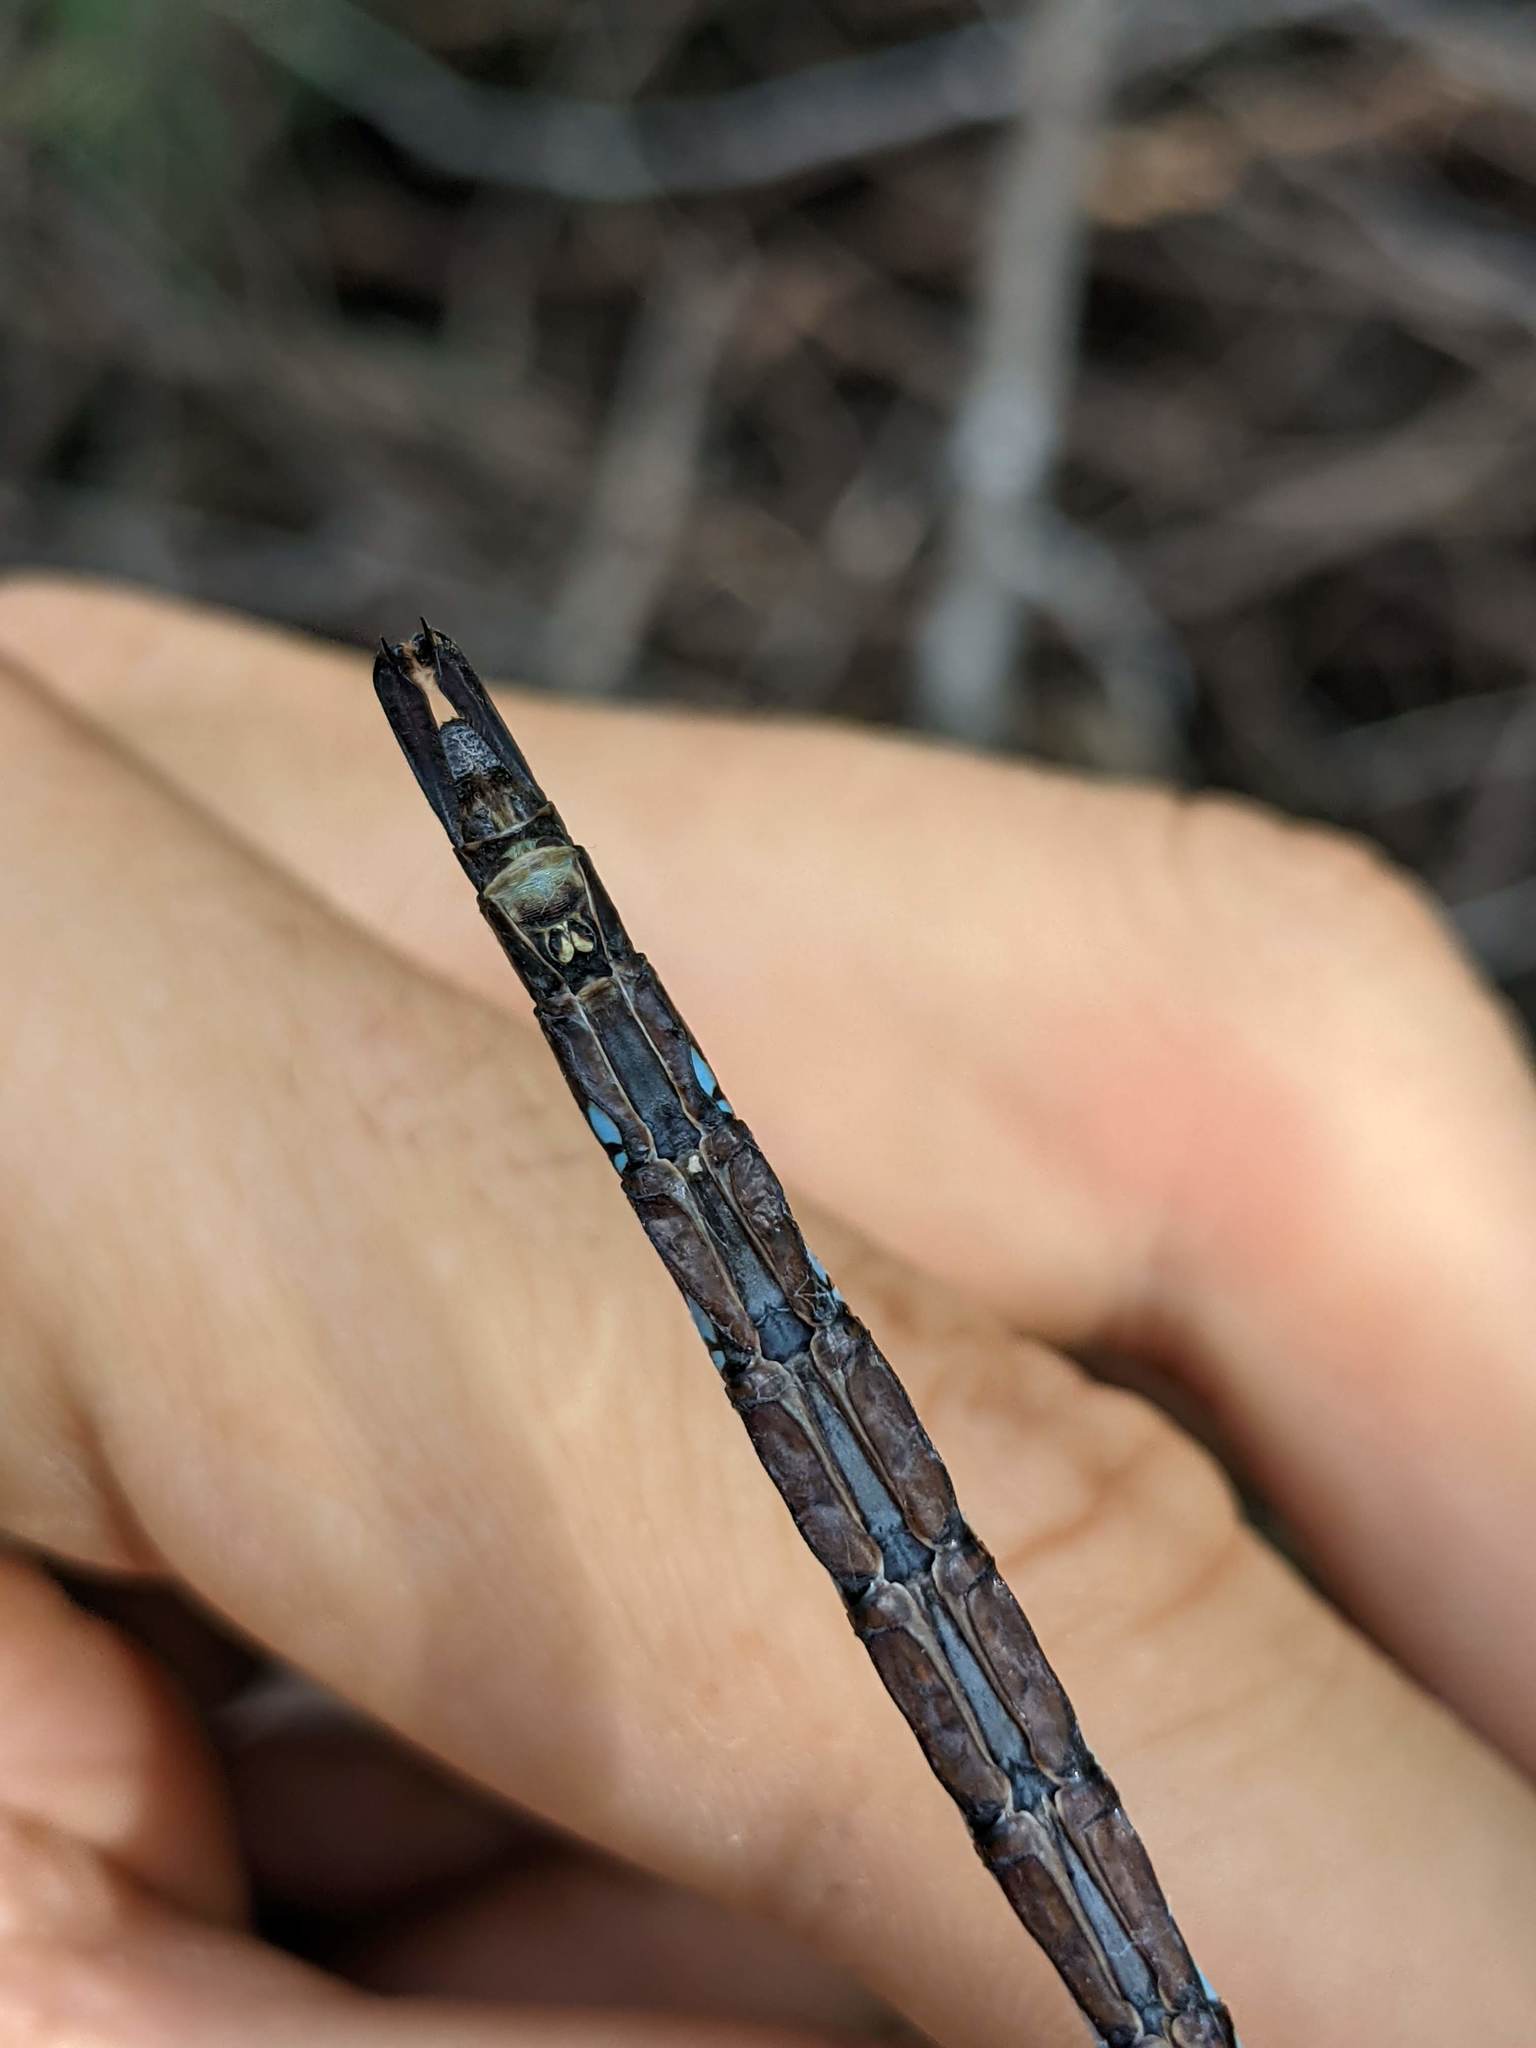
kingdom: Animalia
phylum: Arthropoda
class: Insecta
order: Odonata
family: Aeshnidae
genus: Aeshna
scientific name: Aeshna palmata
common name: Paddle-tailed darner
